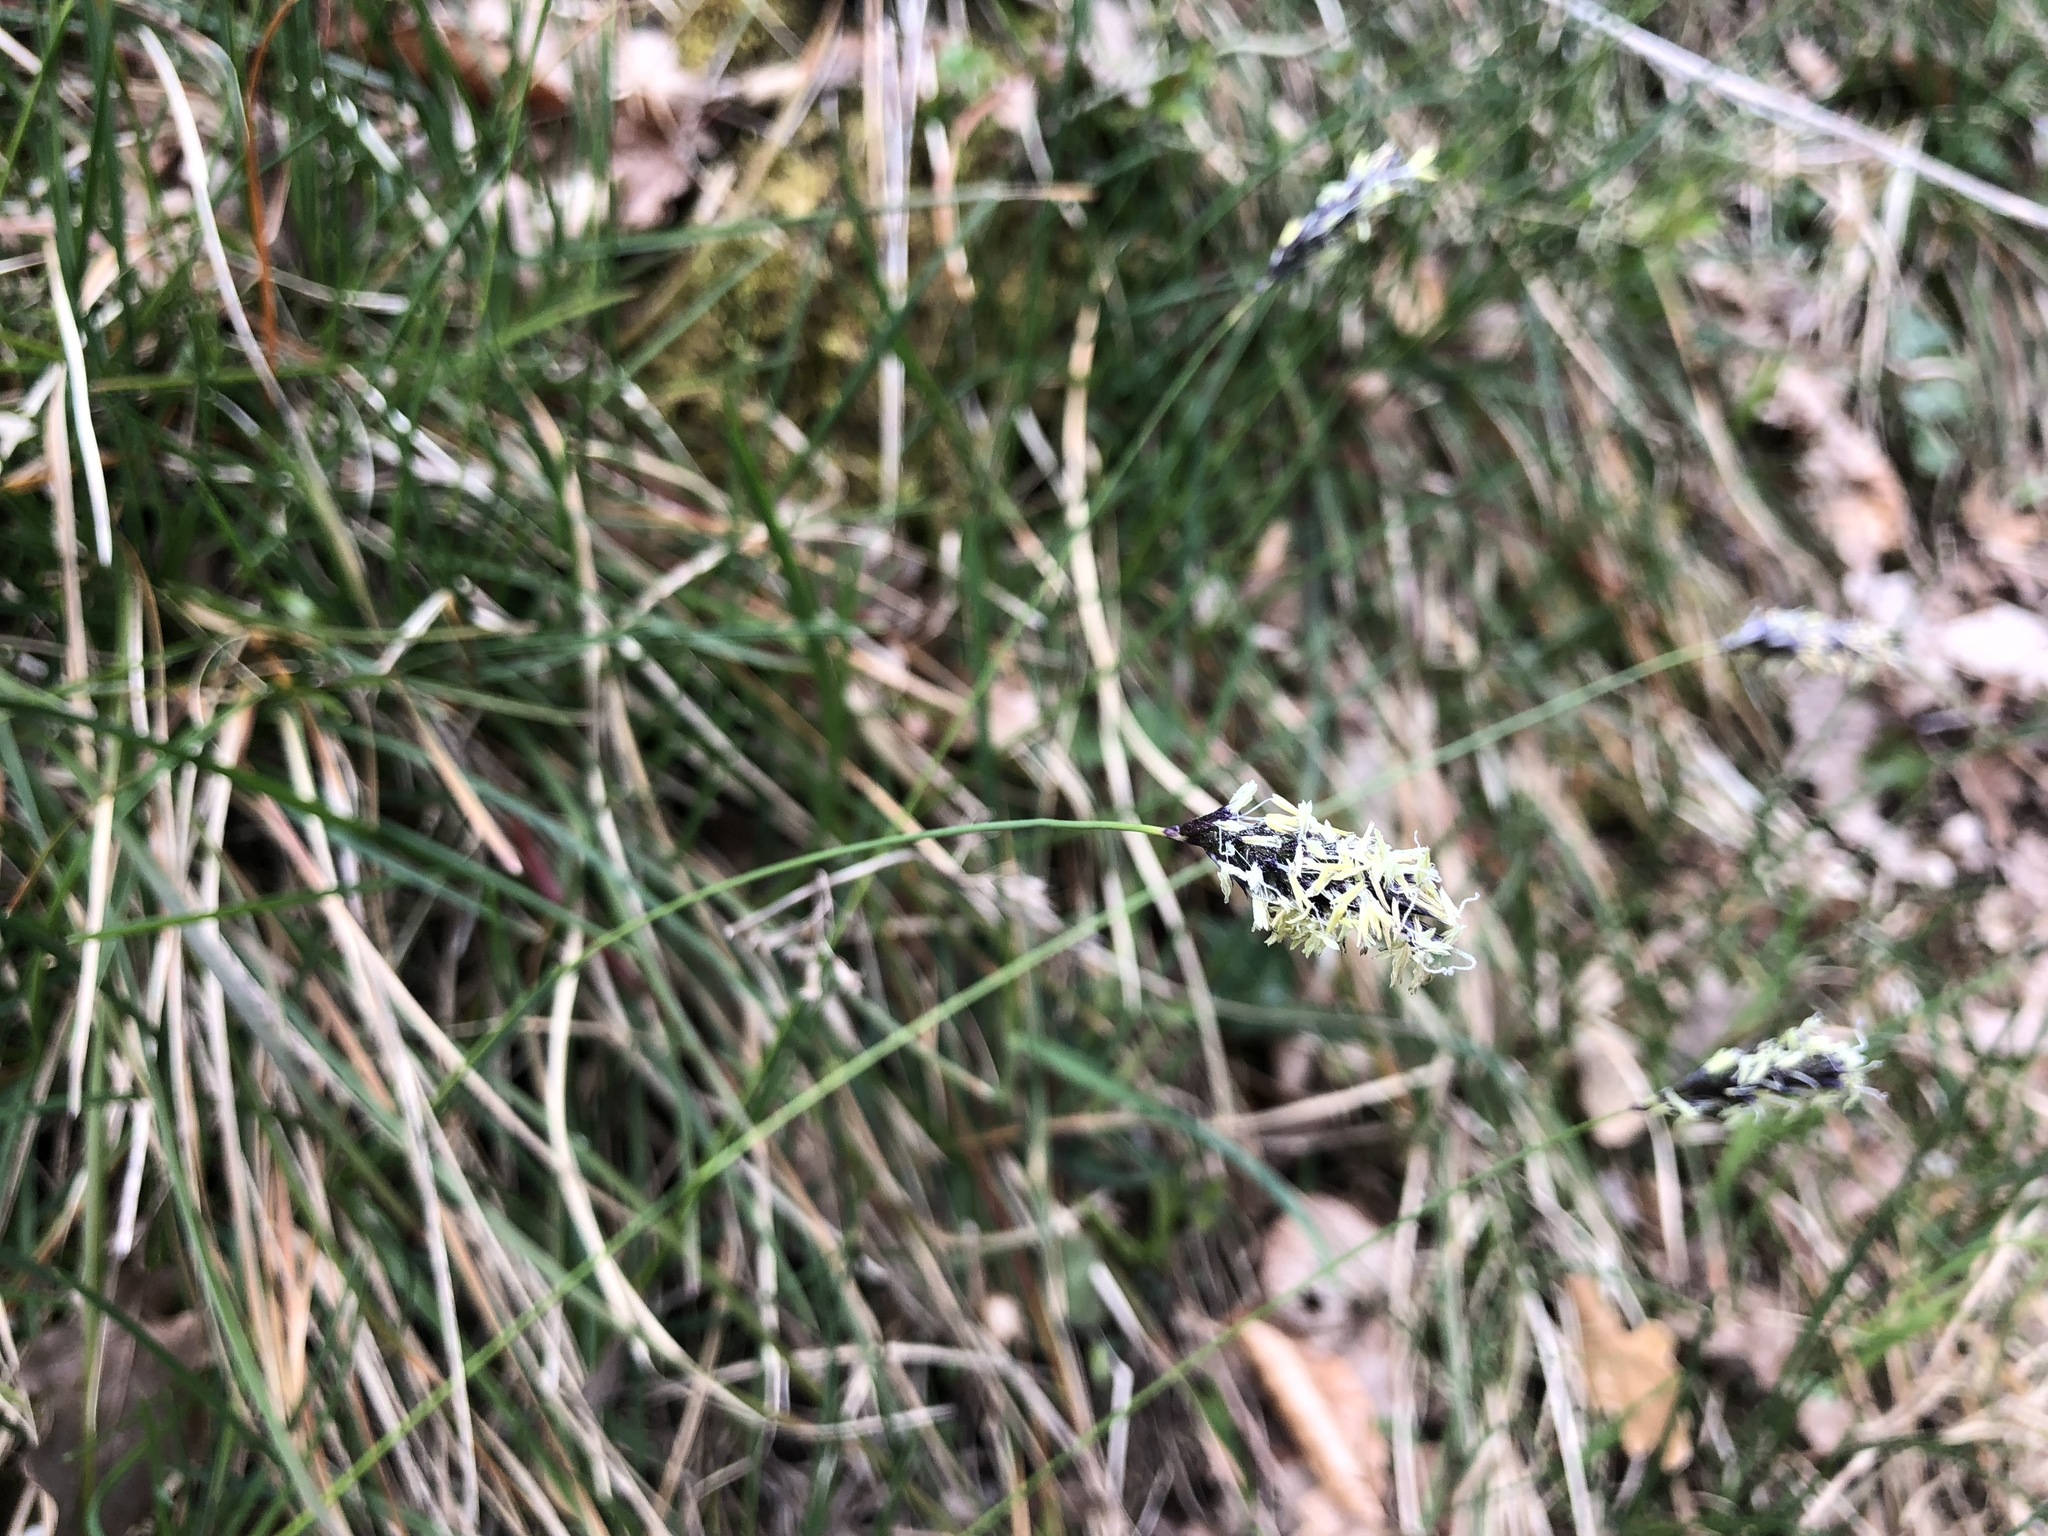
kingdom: Plantae
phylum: Tracheophyta
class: Liliopsida
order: Poales
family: Poaceae
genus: Sesleria
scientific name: Sesleria caerulea
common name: Blue moor-grass
